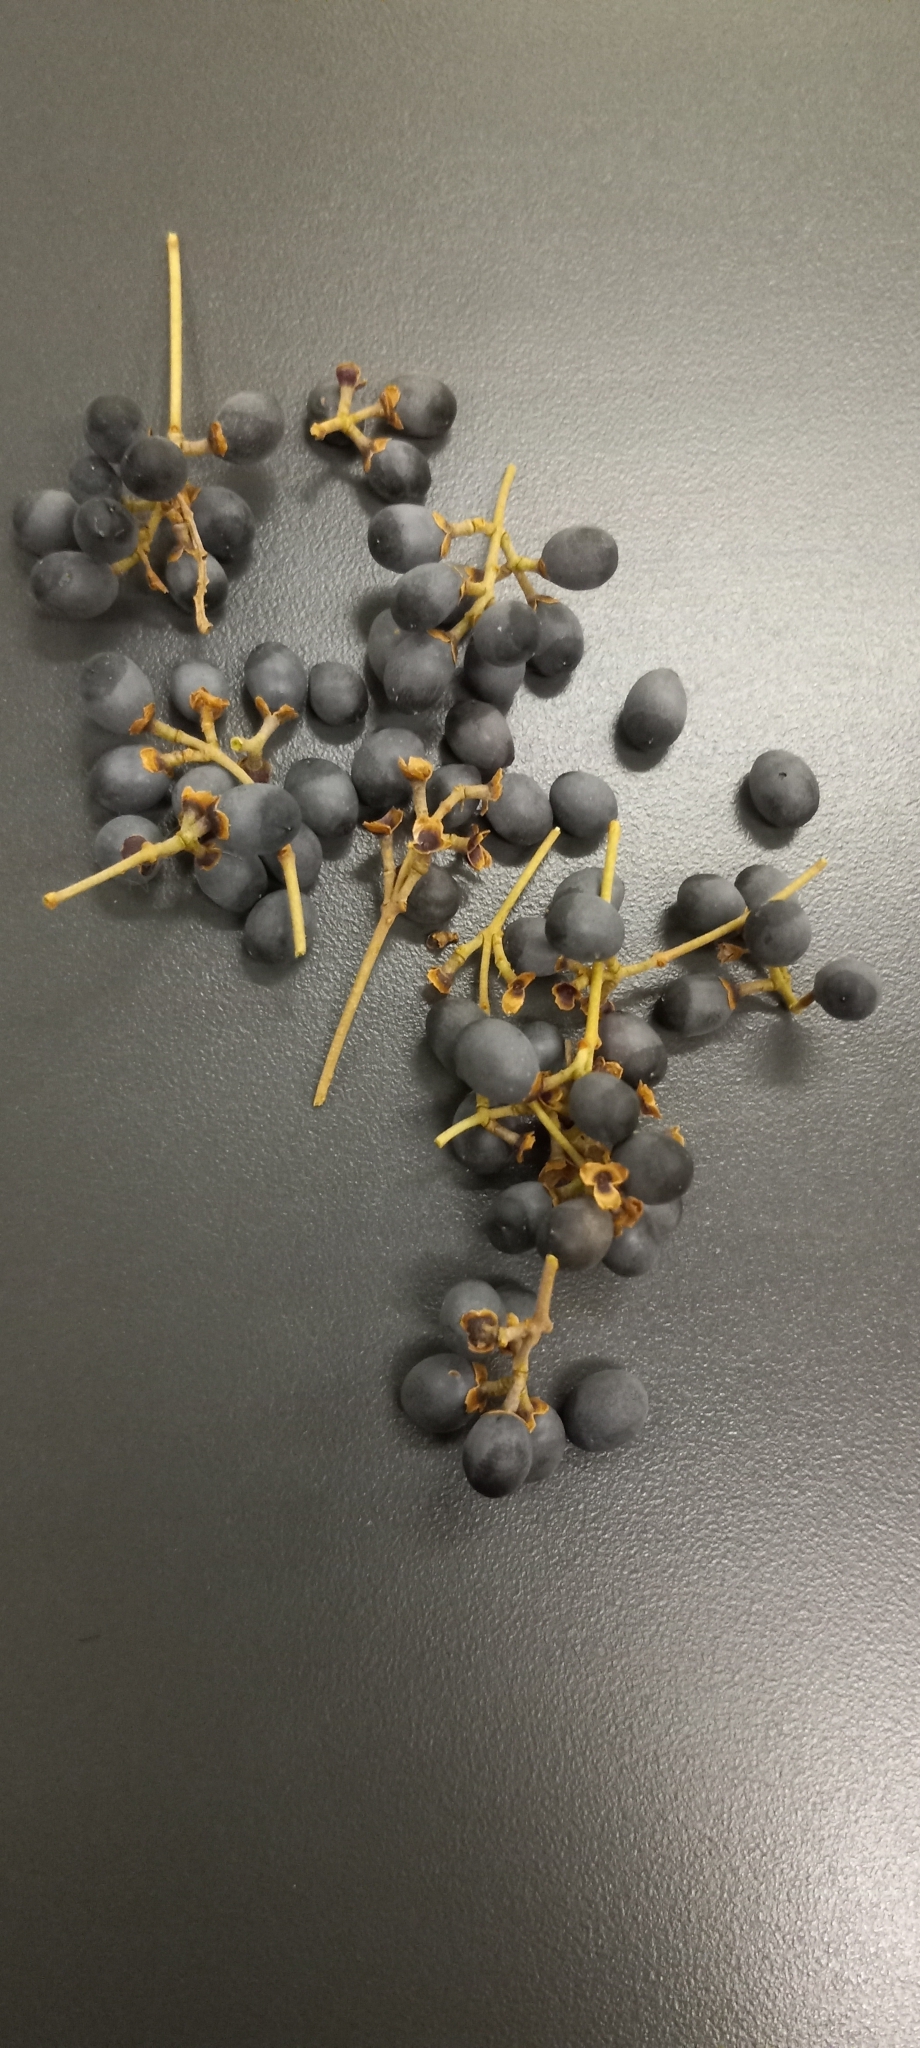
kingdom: Plantae
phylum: Tracheophyta
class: Magnoliopsida
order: Lamiales
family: Oleaceae
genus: Ligustrum
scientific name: Ligustrum vulgare
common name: Wild privet
